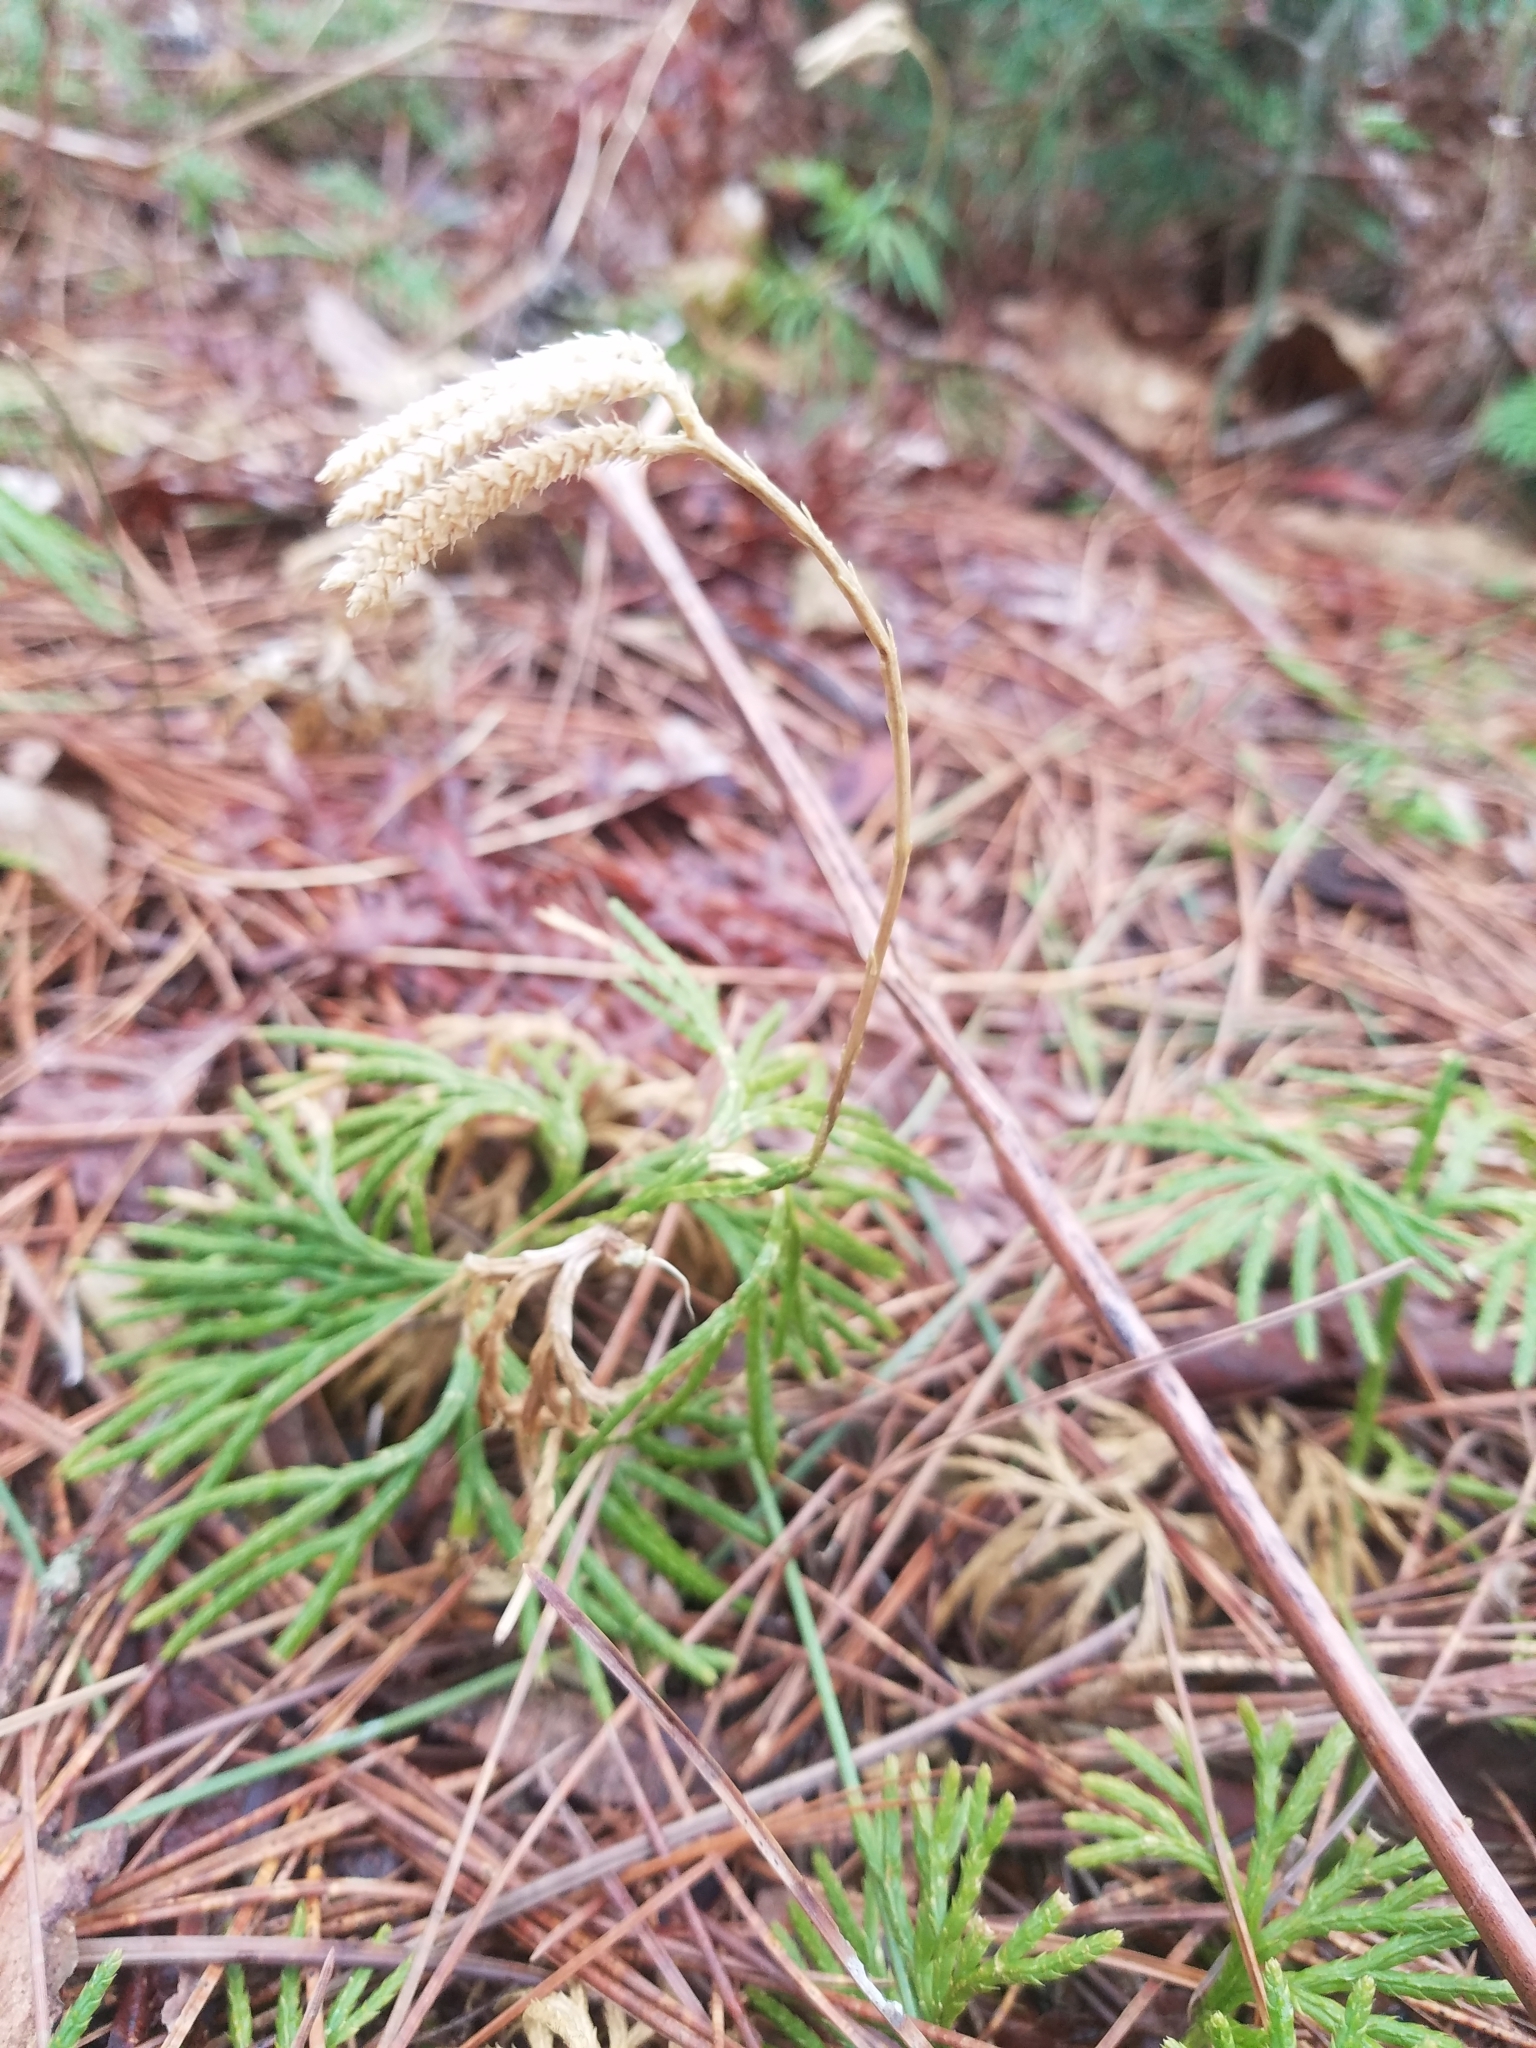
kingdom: Plantae
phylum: Tracheophyta
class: Lycopodiopsida
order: Lycopodiales
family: Lycopodiaceae
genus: Diphasiastrum
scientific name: Diphasiastrum digitatum
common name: Southern running-pine
